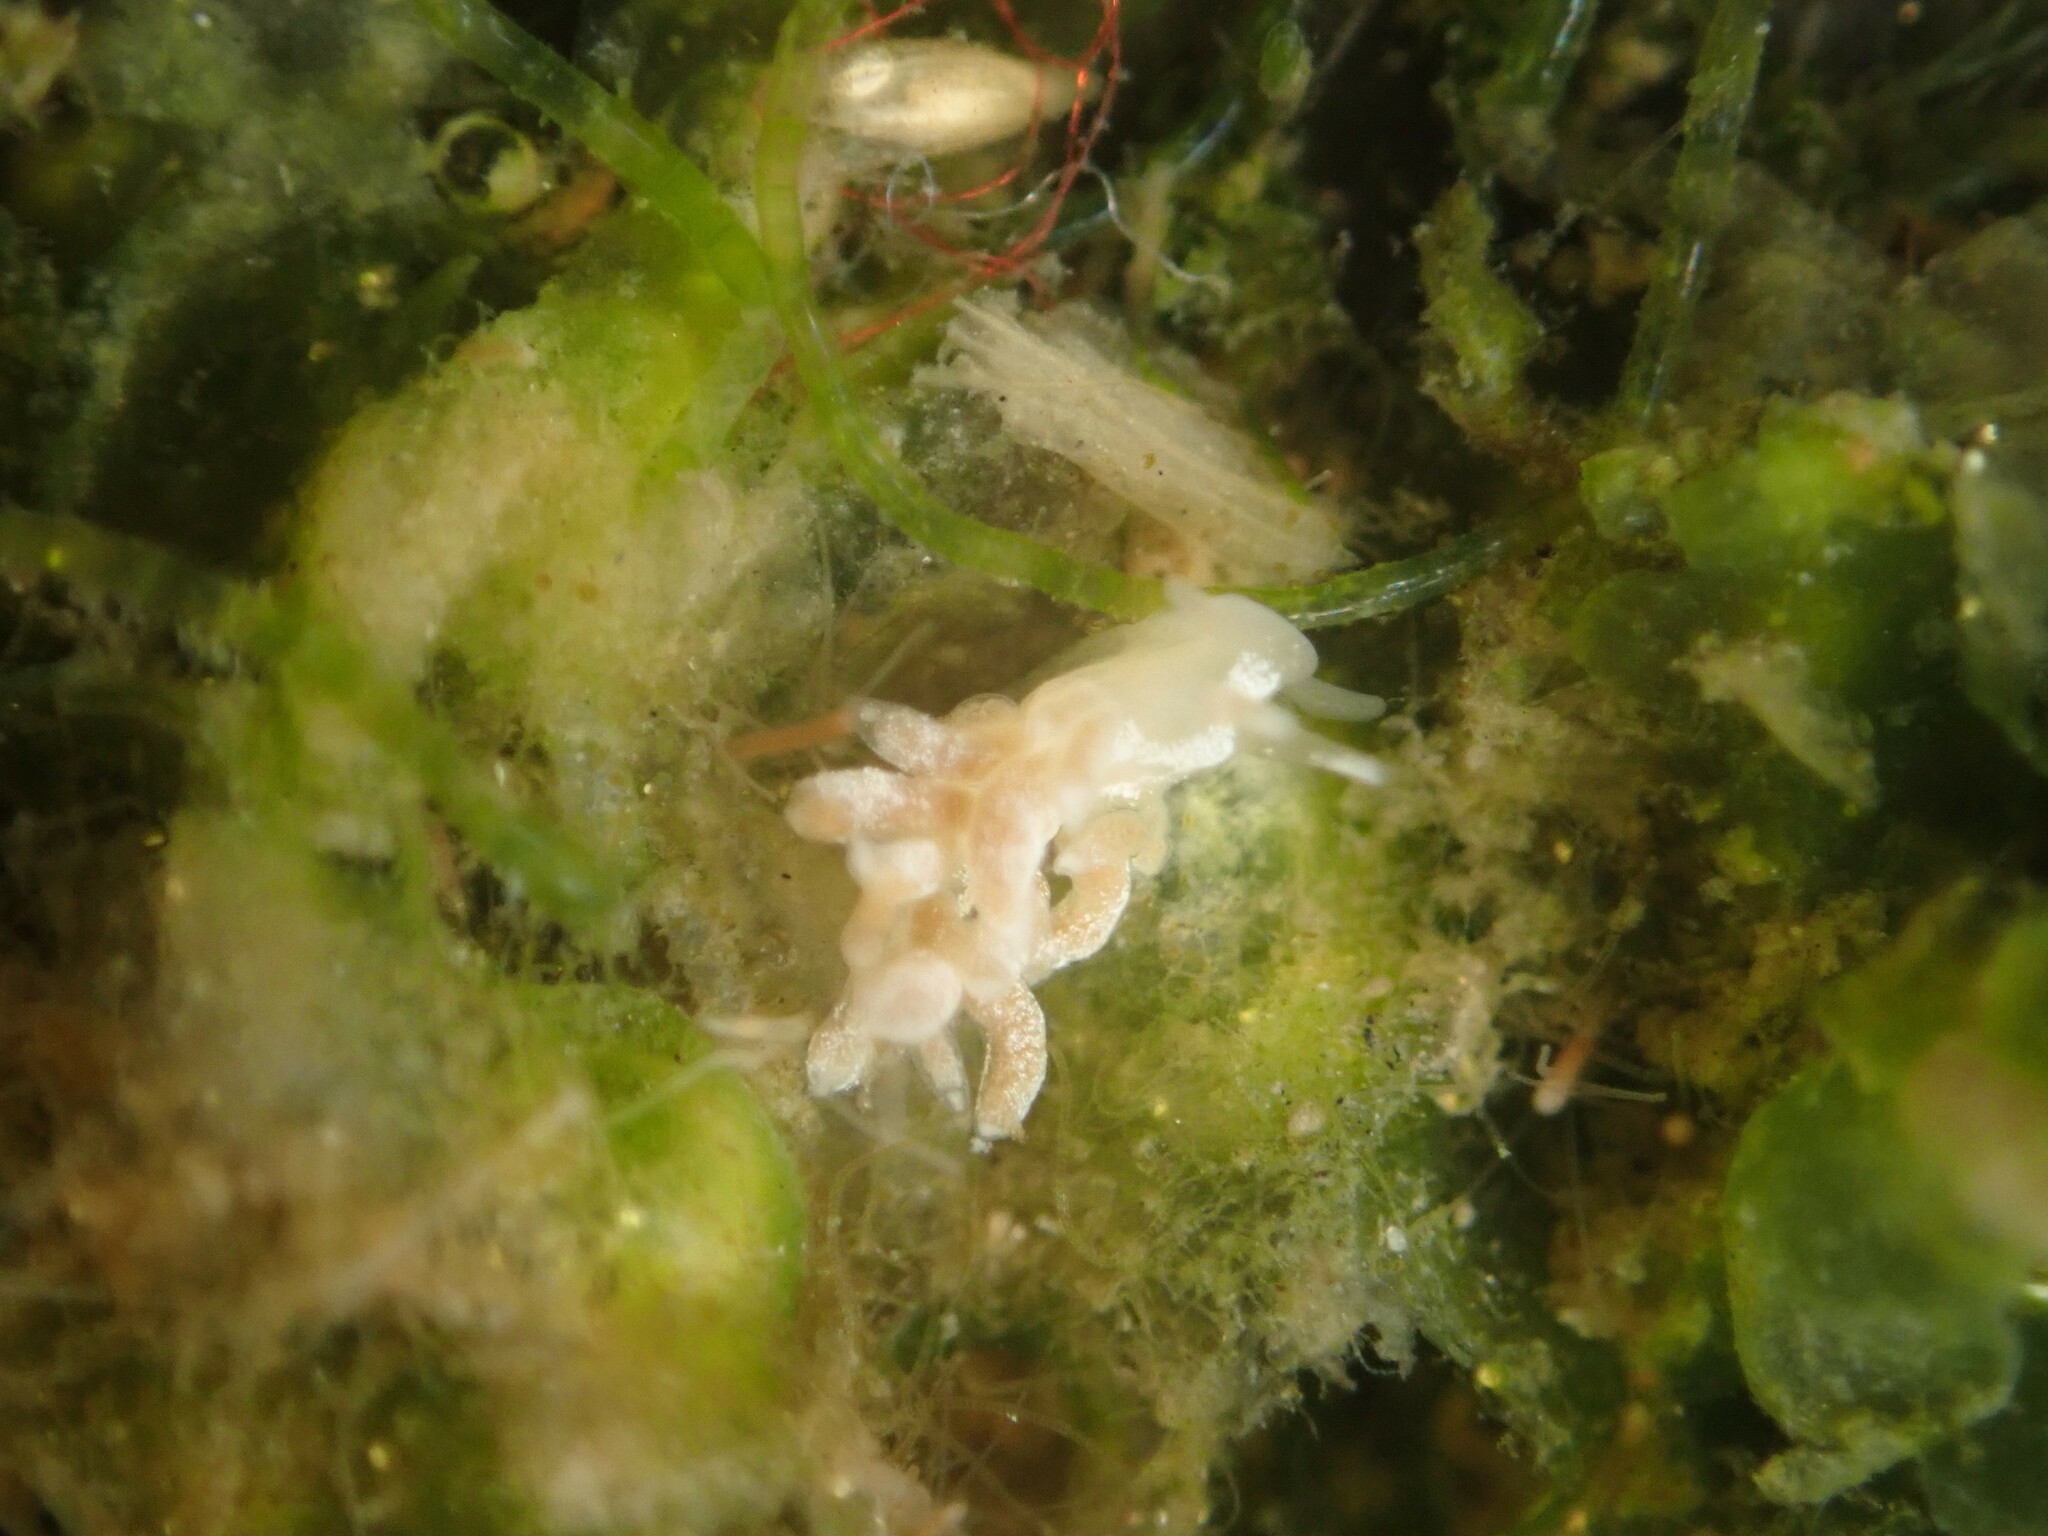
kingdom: Animalia
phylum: Mollusca
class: Gastropoda
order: Nudibranchia
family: Trinchesiidae
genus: Trinchesia
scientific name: Trinchesia albocrusta
